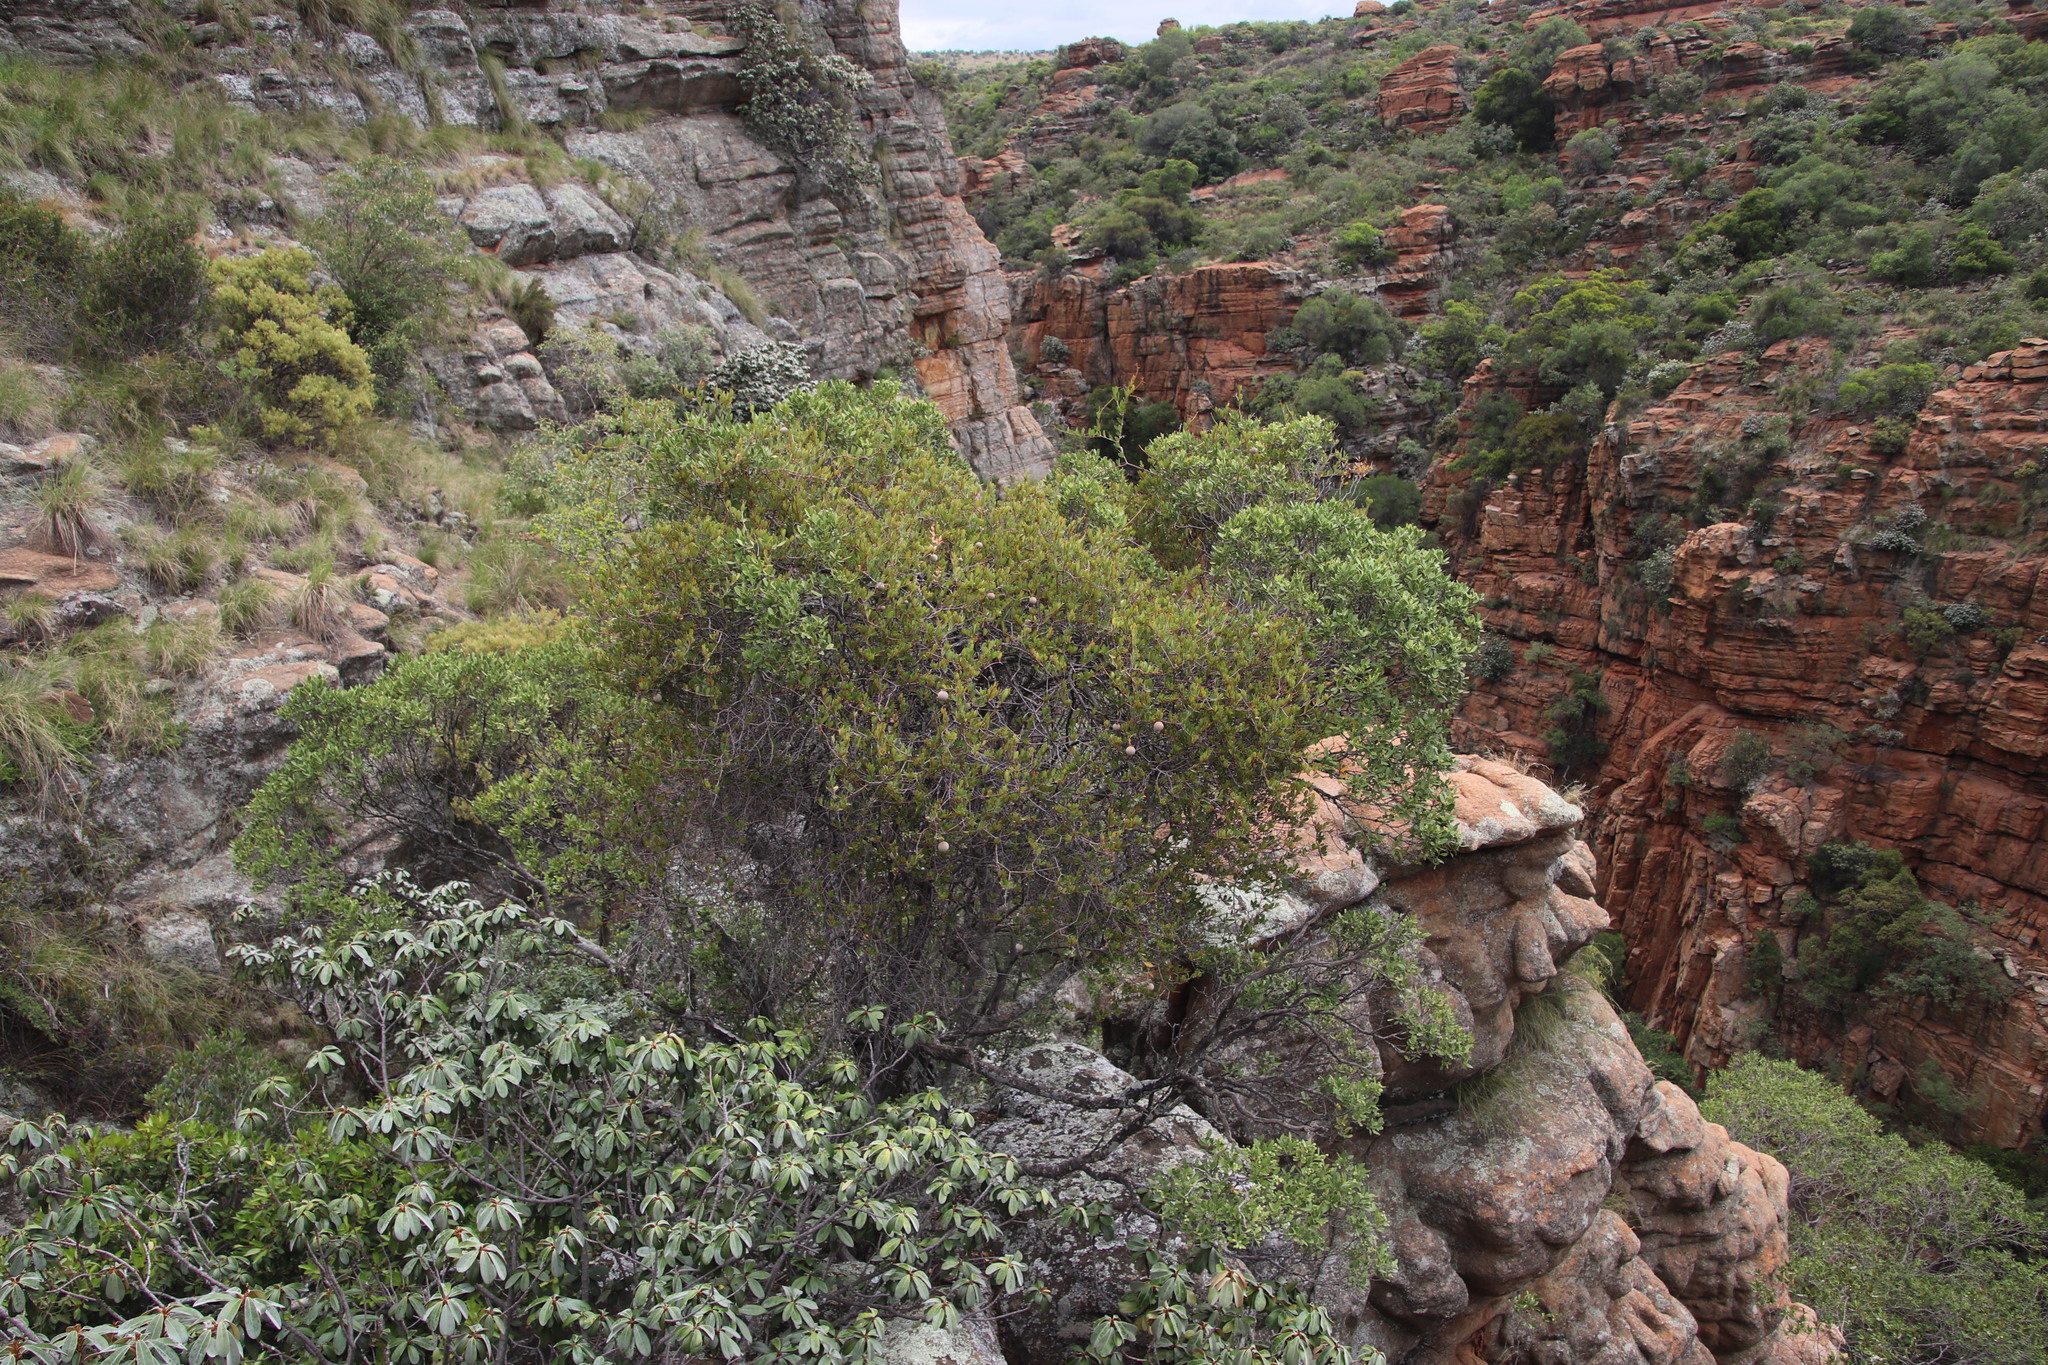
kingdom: Plantae
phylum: Tracheophyta
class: Magnoliopsida
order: Gentianales
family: Apocynaceae
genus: Ancylobothrys
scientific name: Ancylobothrys capensis
